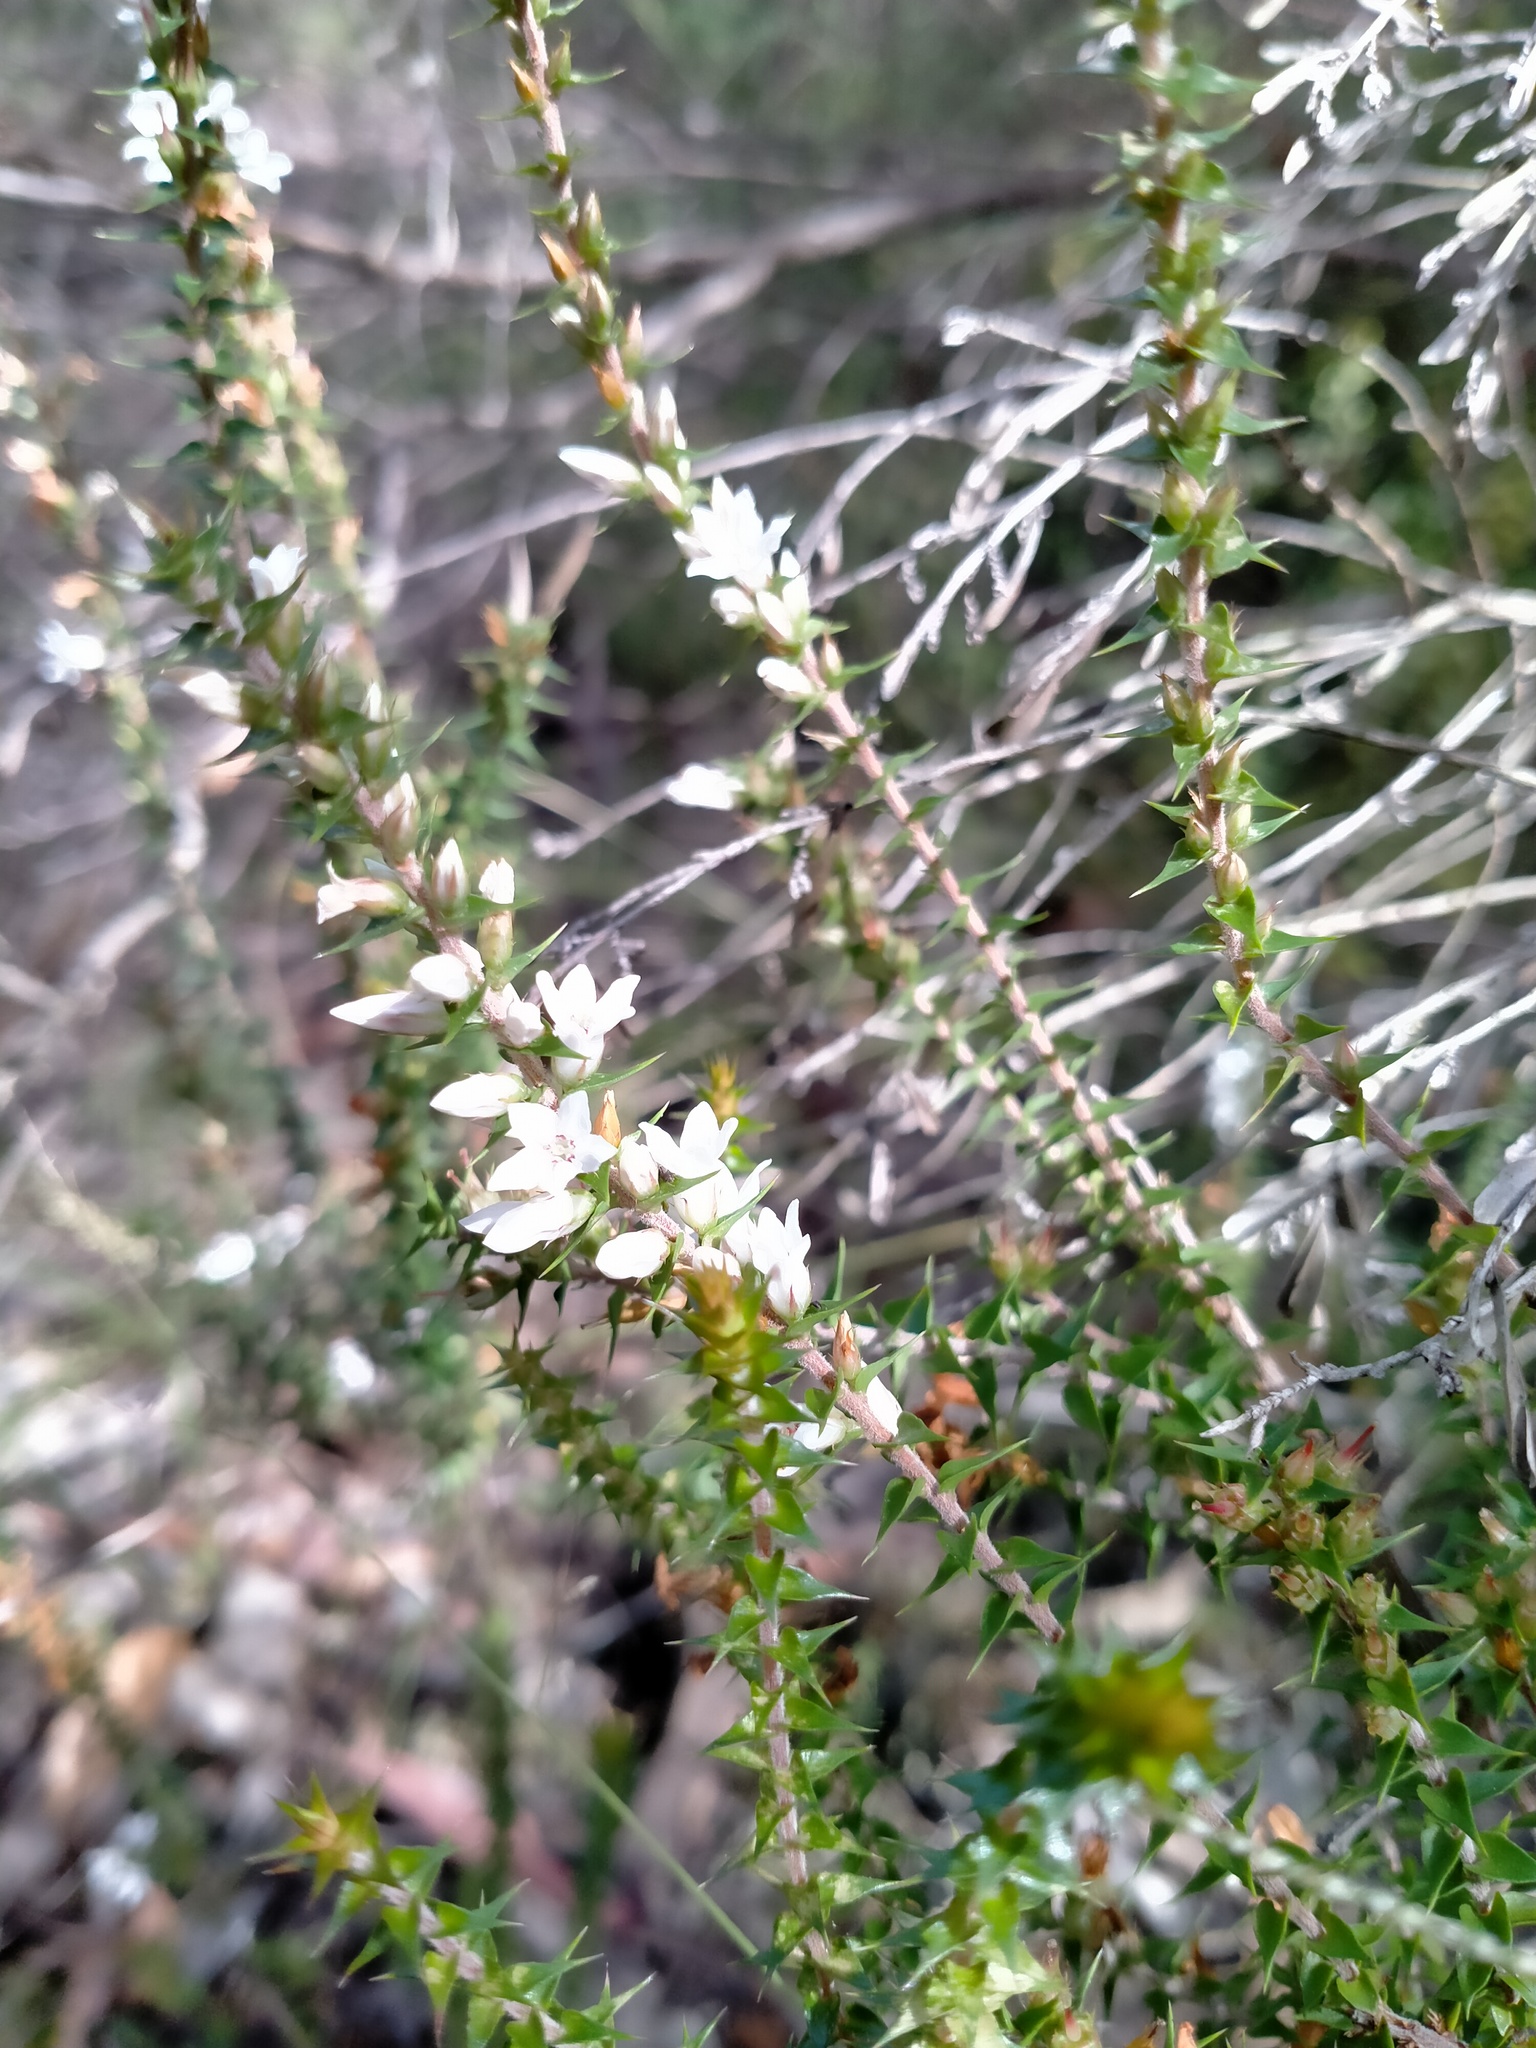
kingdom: Plantae
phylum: Tracheophyta
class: Magnoliopsida
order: Ericales
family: Ericaceae
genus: Epacris
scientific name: Epacris pulchella
